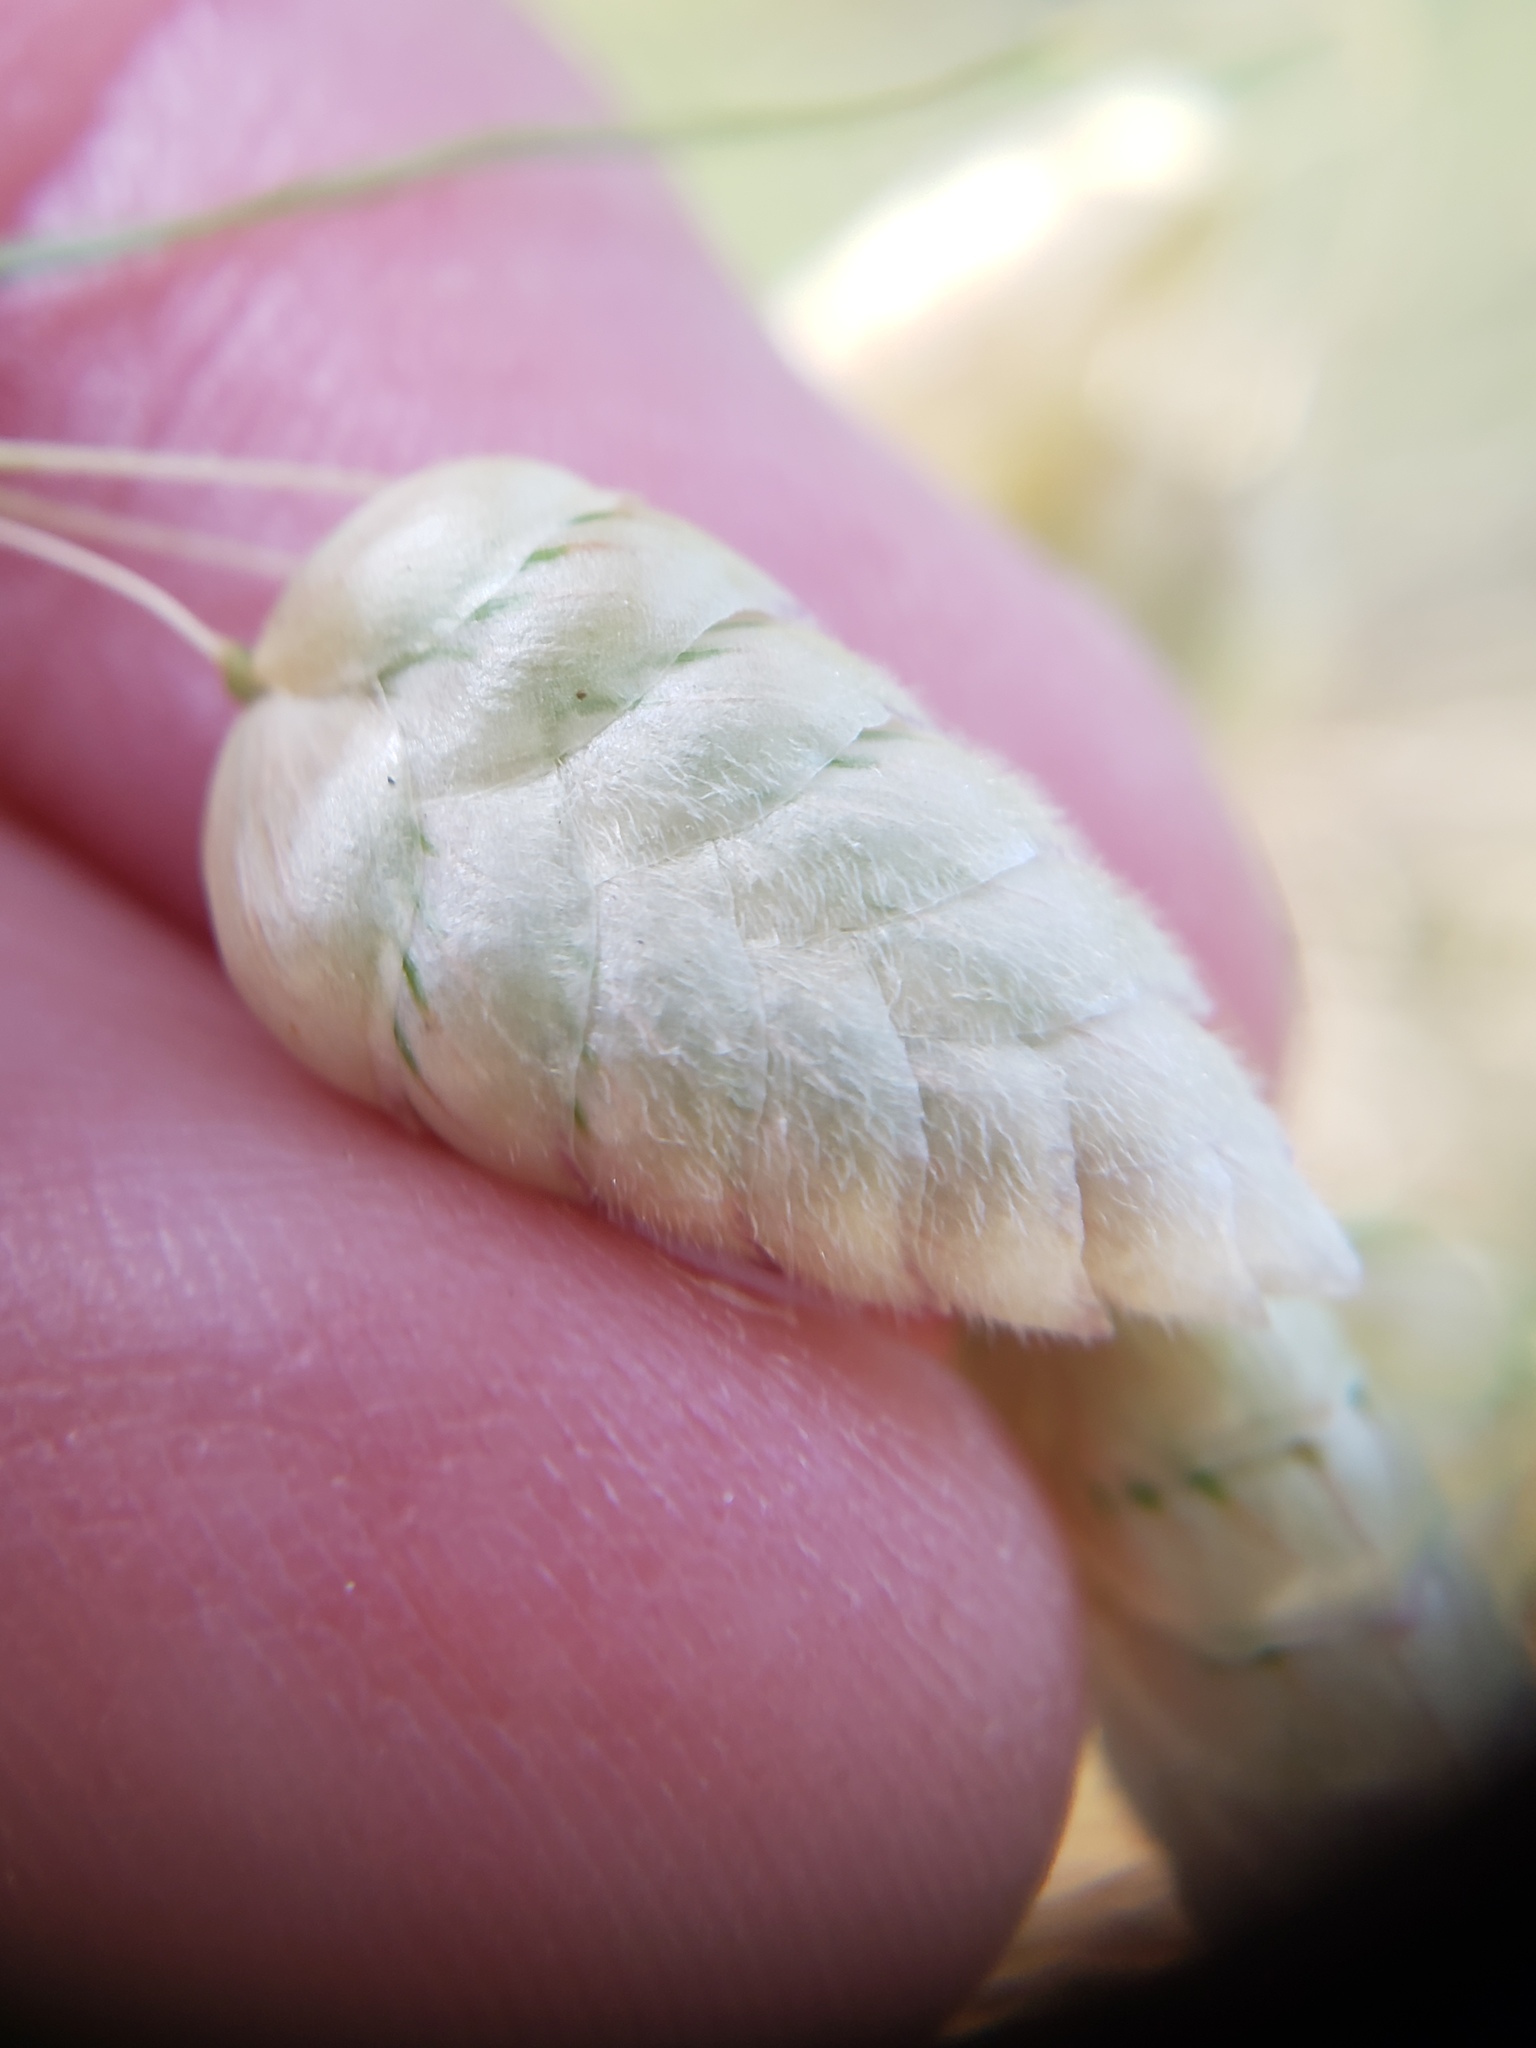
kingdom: Plantae
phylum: Tracheophyta
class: Liliopsida
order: Poales
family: Poaceae
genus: Briza
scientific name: Briza maxima
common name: Big quakinggrass
